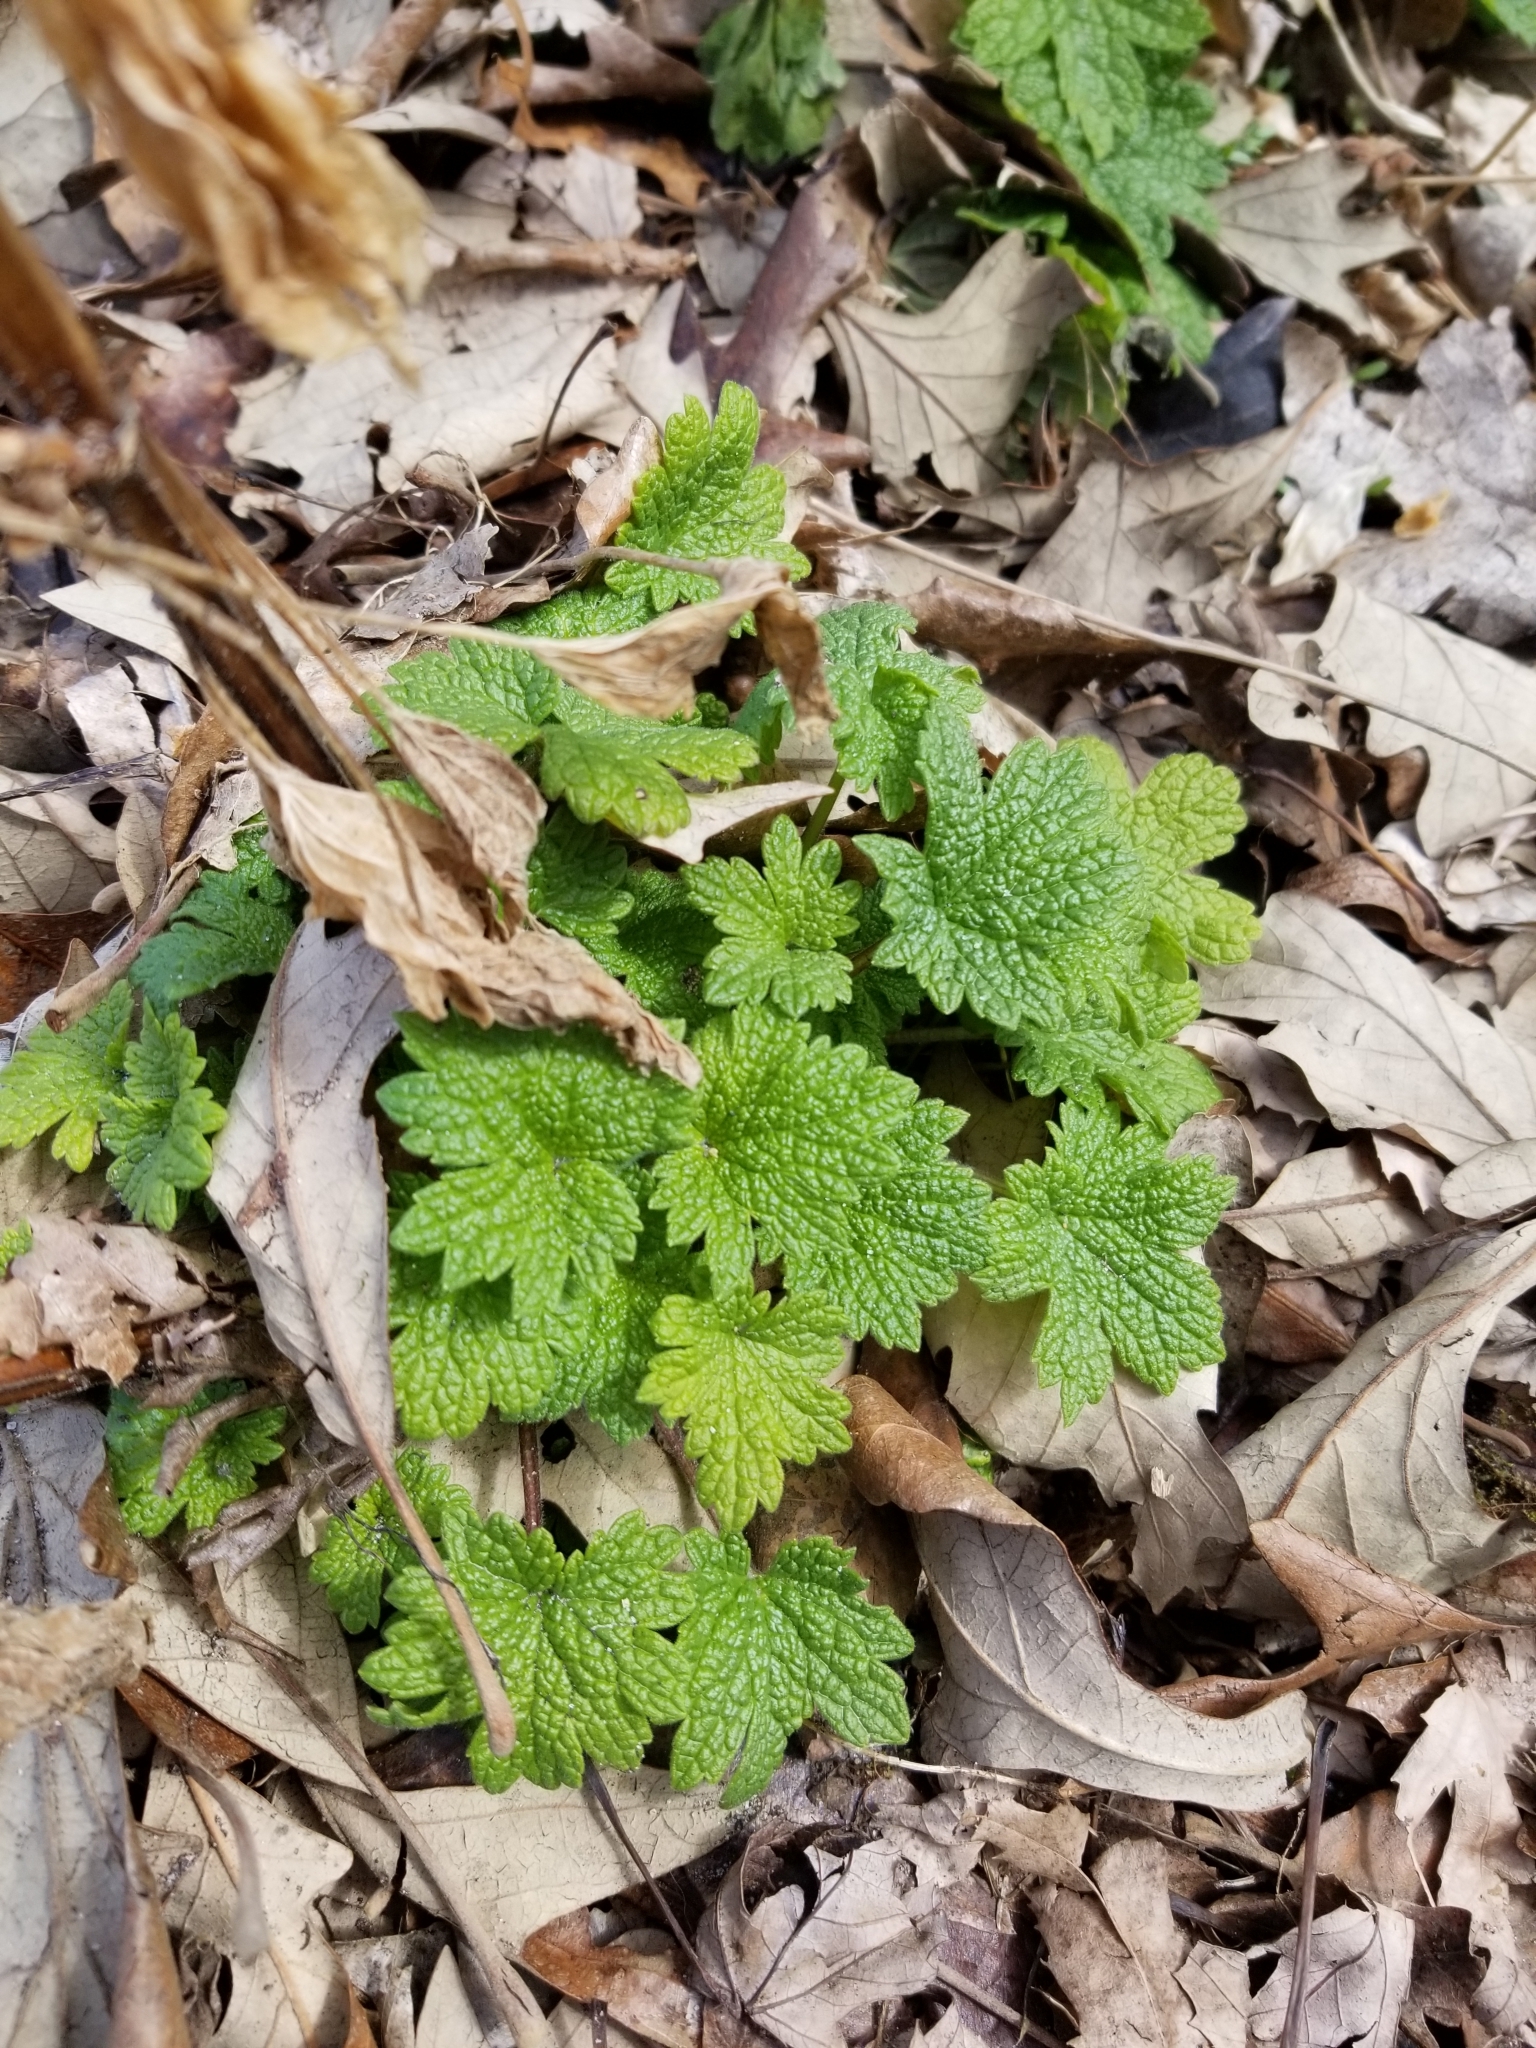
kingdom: Plantae
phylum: Tracheophyta
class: Magnoliopsida
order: Lamiales
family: Lamiaceae
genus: Leonurus
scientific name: Leonurus cardiaca
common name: Motherwort
